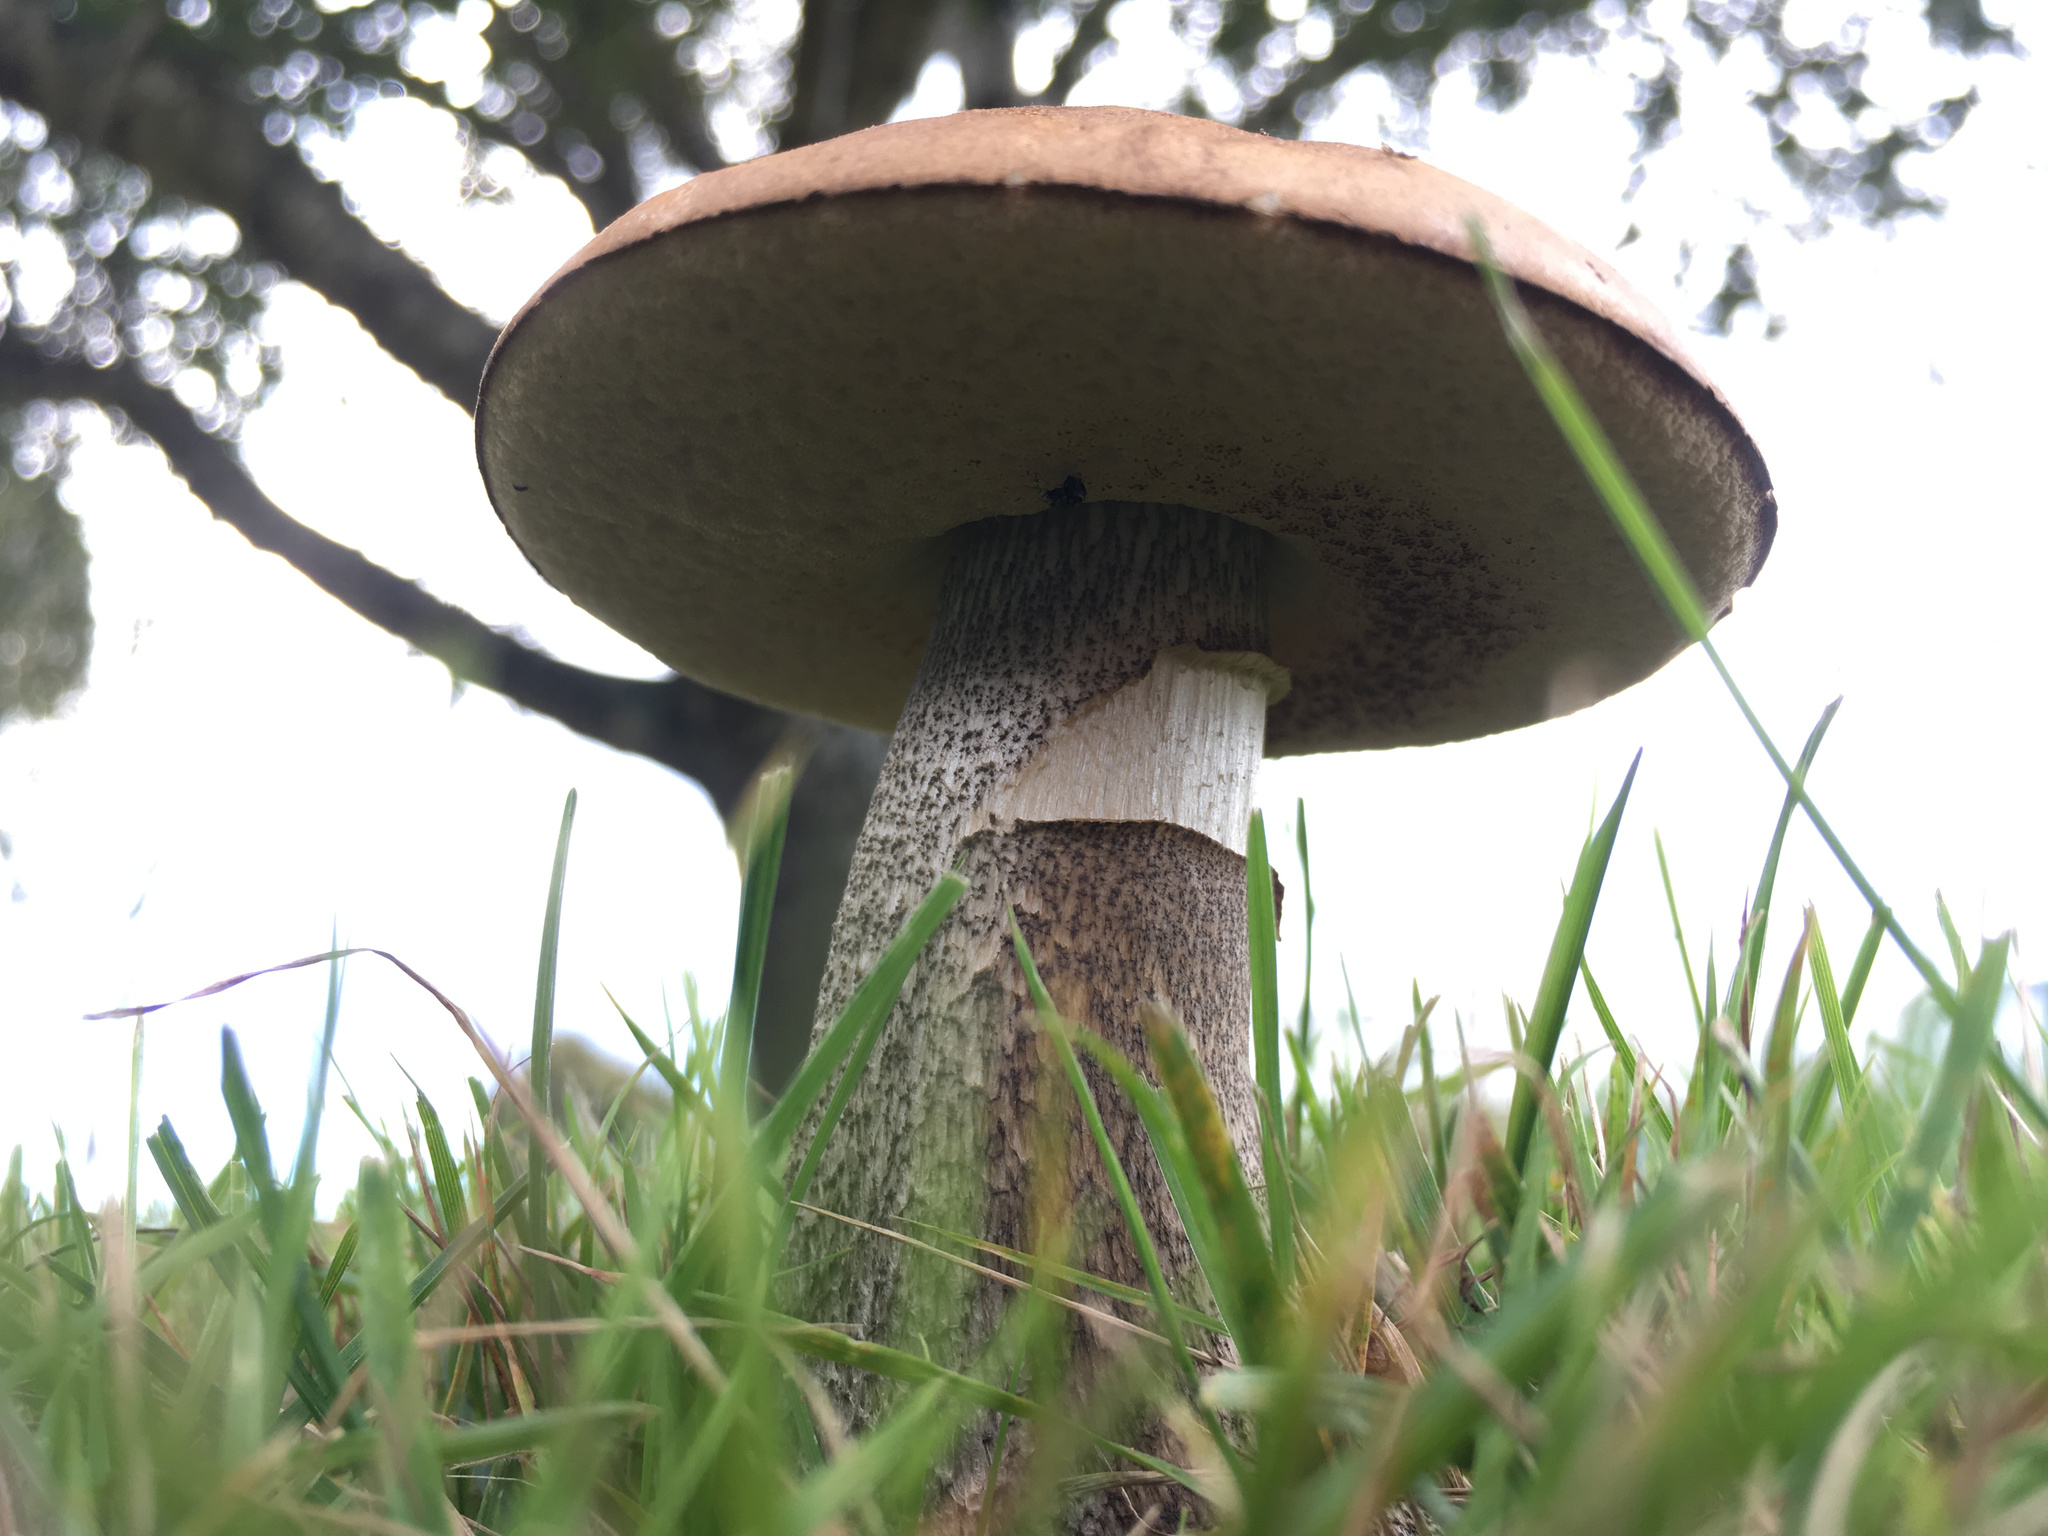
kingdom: Fungi
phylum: Basidiomycota
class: Agaricomycetes
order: Boletales
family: Boletaceae
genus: Leccinum
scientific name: Leccinum scabrum
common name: Blushing bolete
